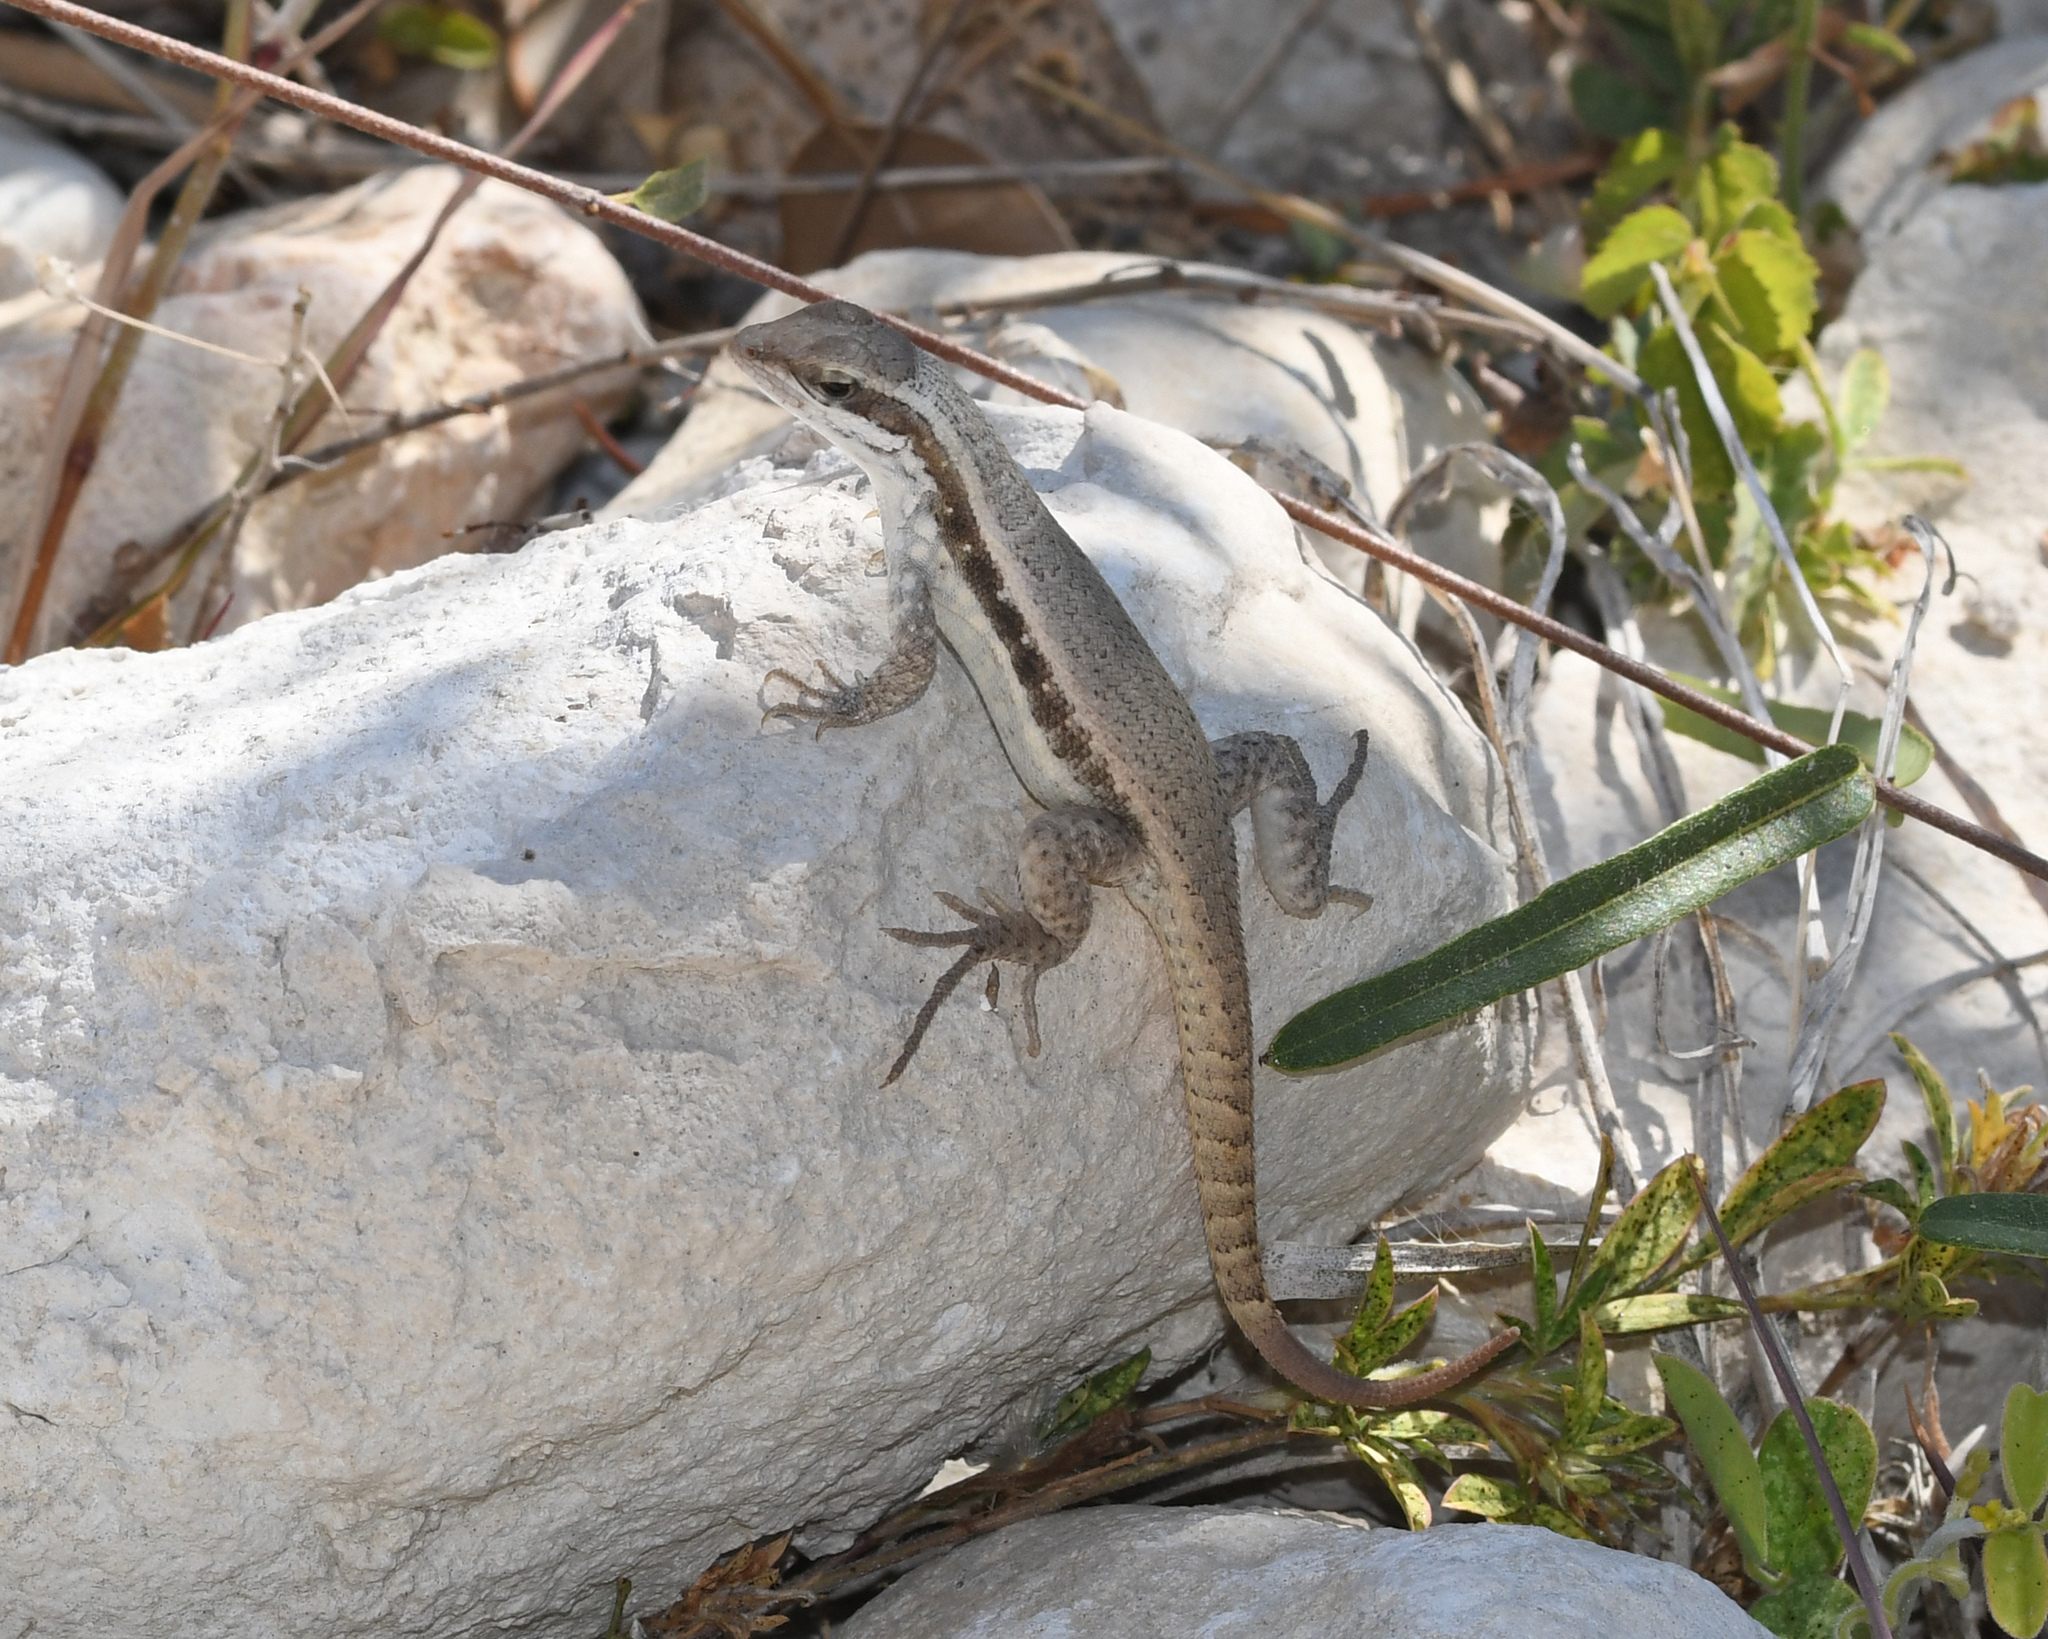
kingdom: Animalia
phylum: Chordata
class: Squamata
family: Leiocephalidae
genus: Leiocephalus
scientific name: Leiocephalus semilineatus
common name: Pale-bellied hispaniolan curlytail
